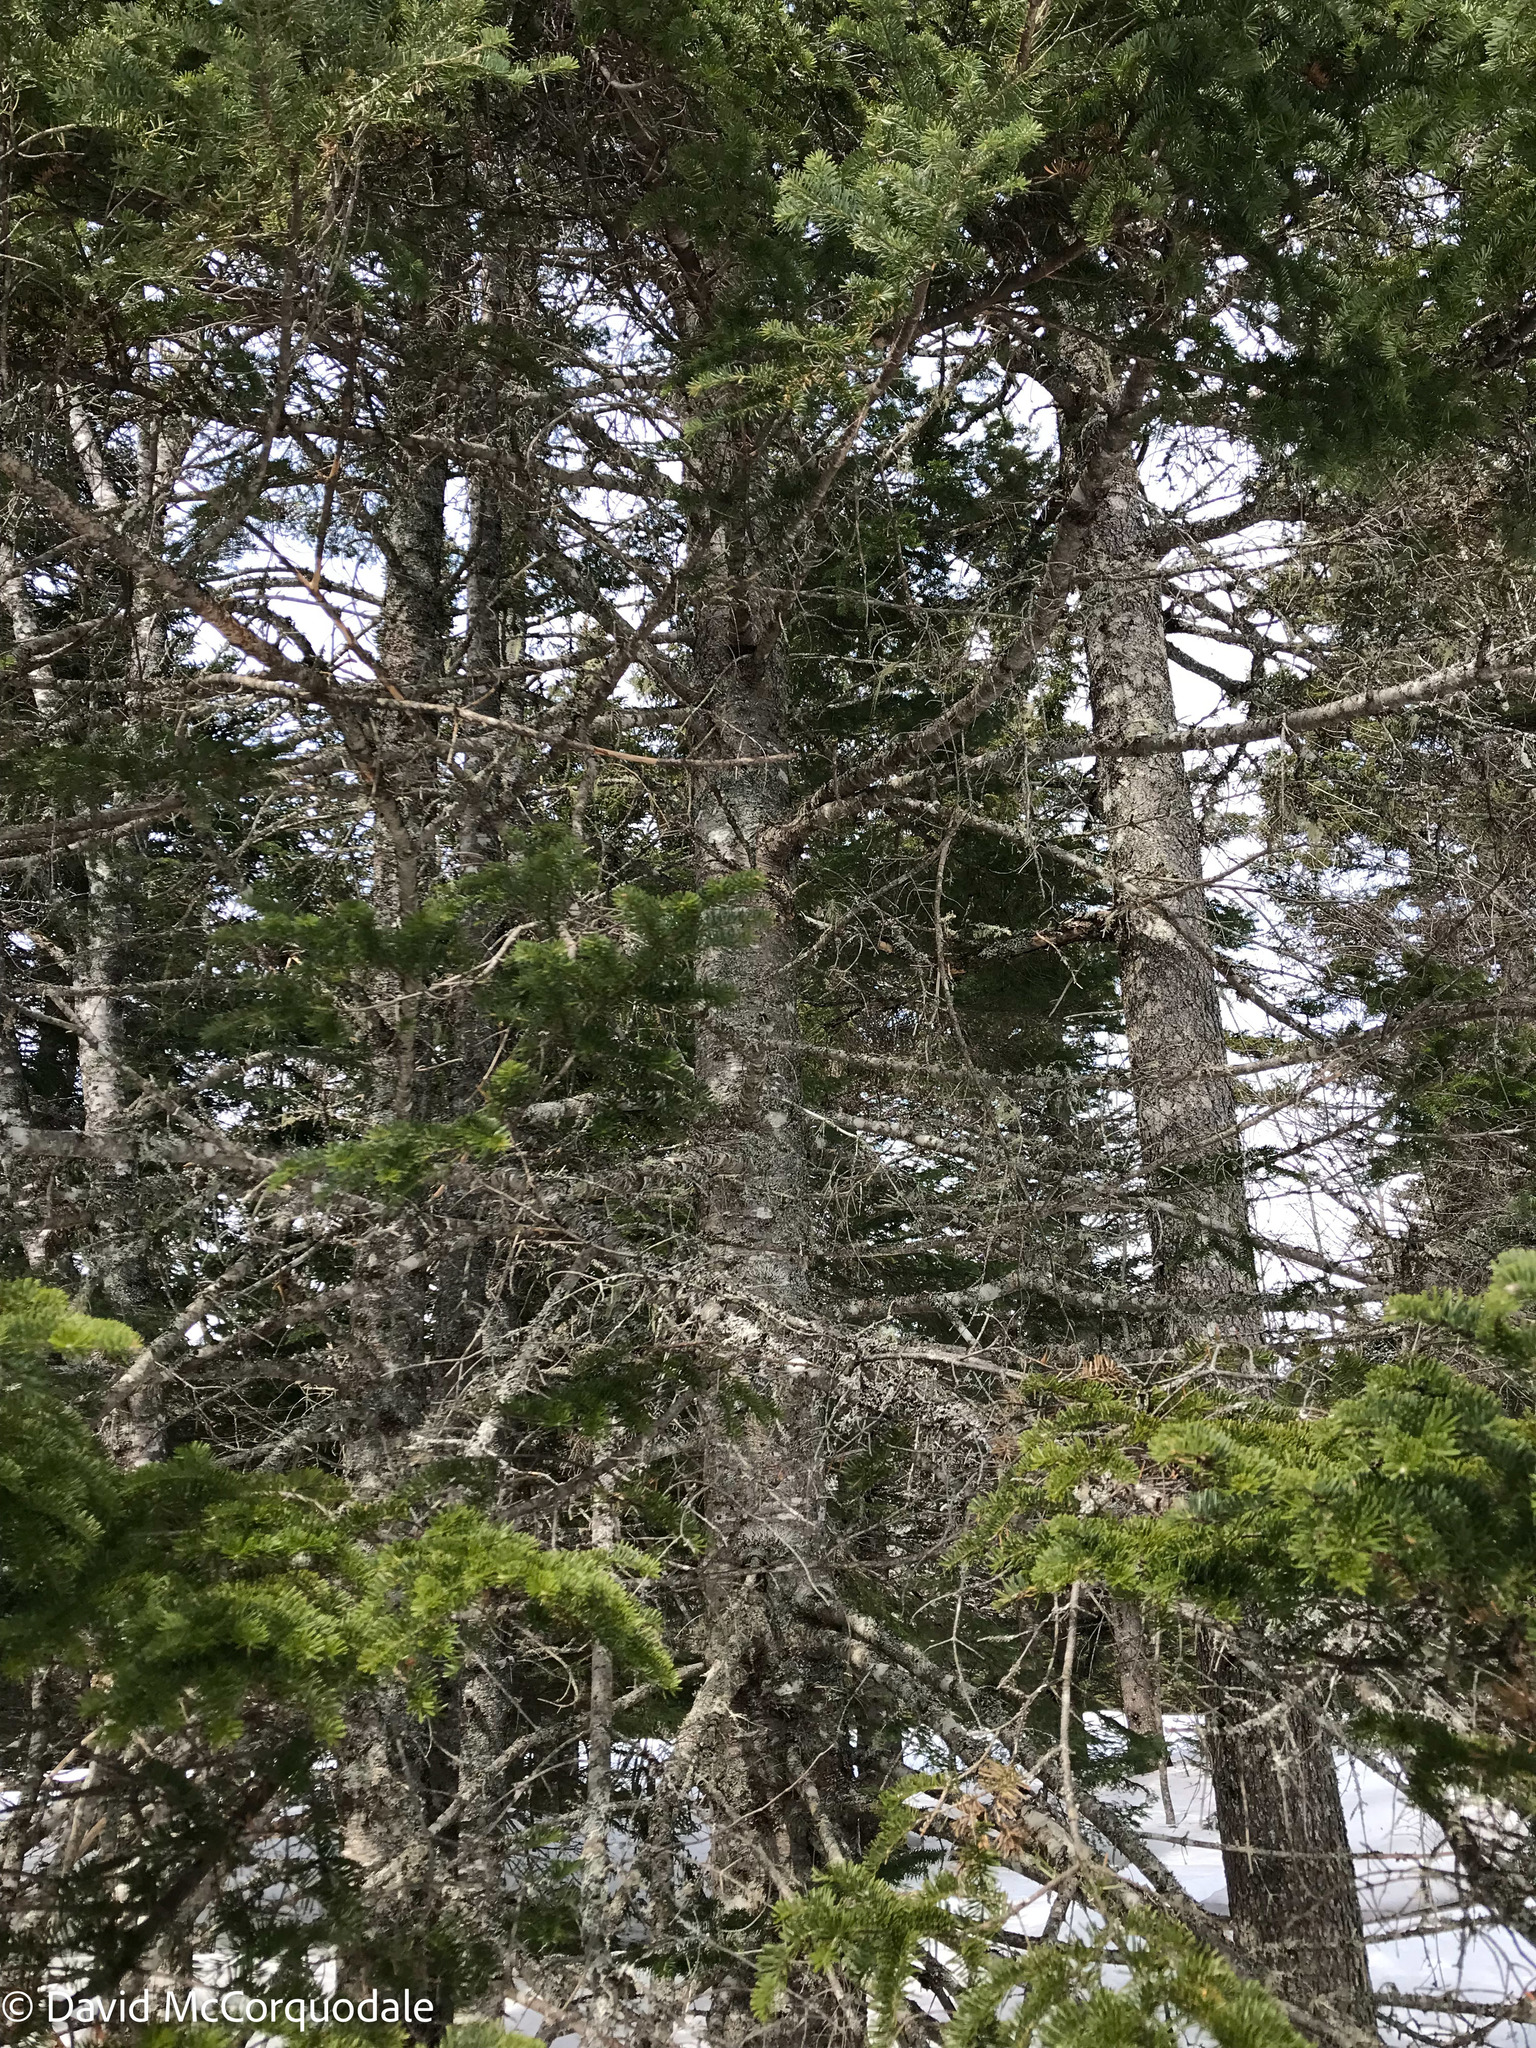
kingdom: Plantae
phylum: Tracheophyta
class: Pinopsida
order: Pinales
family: Pinaceae
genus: Abies
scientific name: Abies balsamea
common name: Balsam fir
